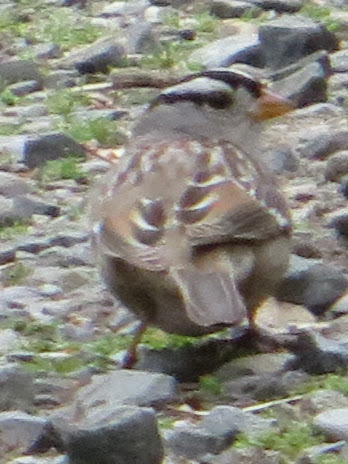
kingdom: Animalia
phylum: Chordata
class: Aves
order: Passeriformes
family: Passerellidae
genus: Zonotrichia
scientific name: Zonotrichia leucophrys
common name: White-crowned sparrow
